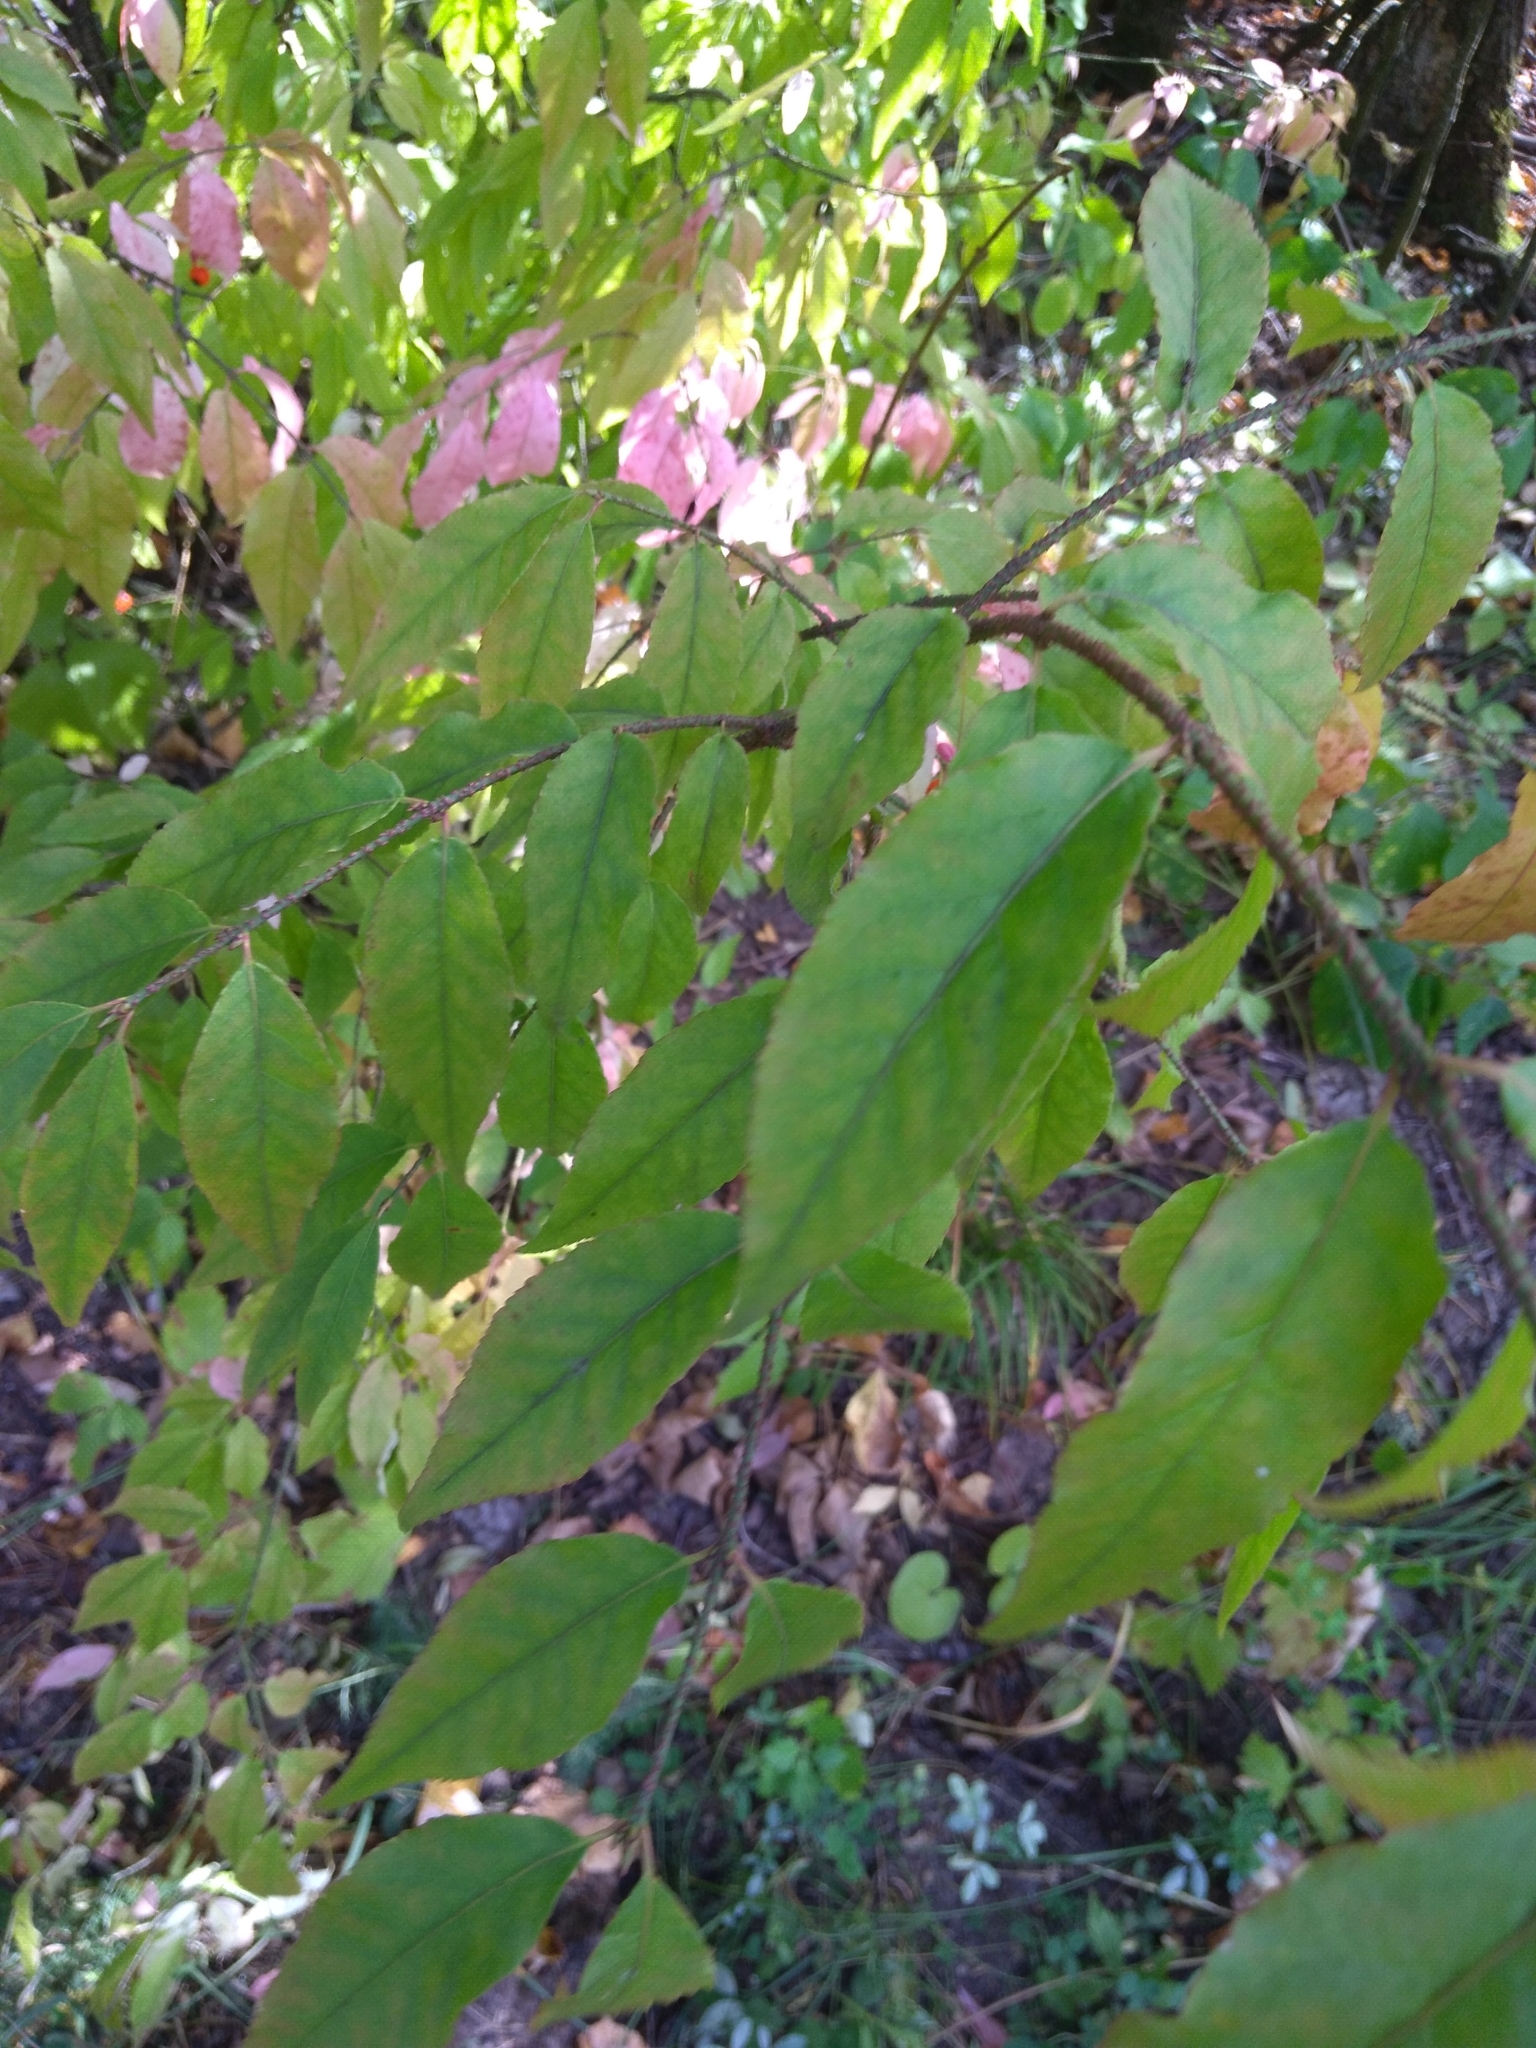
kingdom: Plantae
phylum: Tracheophyta
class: Magnoliopsida
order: Celastrales
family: Celastraceae
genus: Euonymus
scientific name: Euonymus verrucosus
